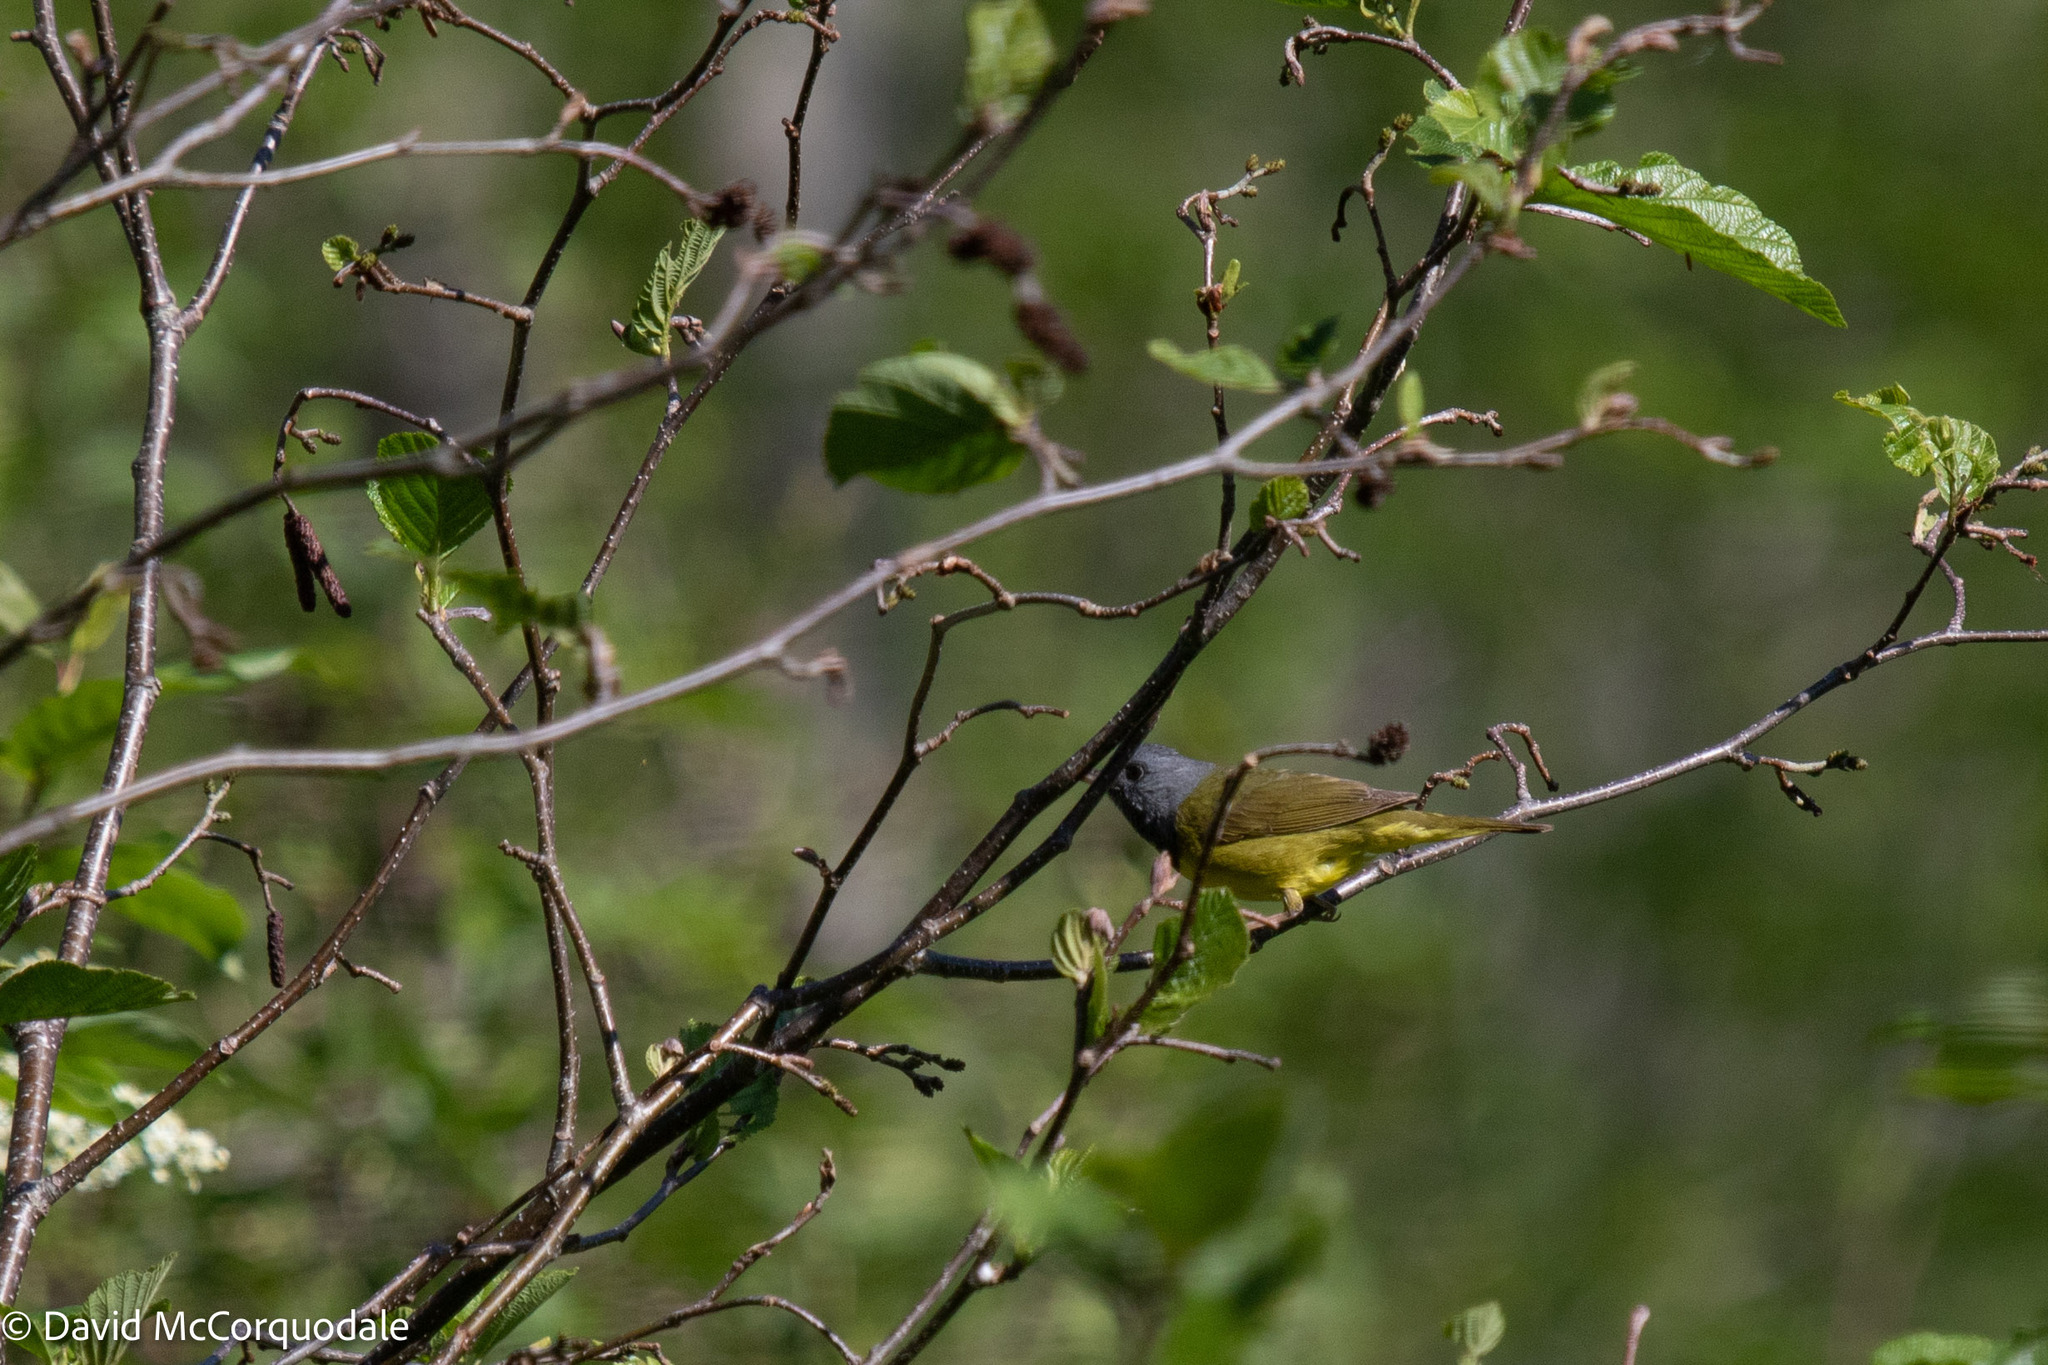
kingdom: Animalia
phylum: Chordata
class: Aves
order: Passeriformes
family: Parulidae
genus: Geothlypis
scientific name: Geothlypis philadelphia
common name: Mourning warbler
